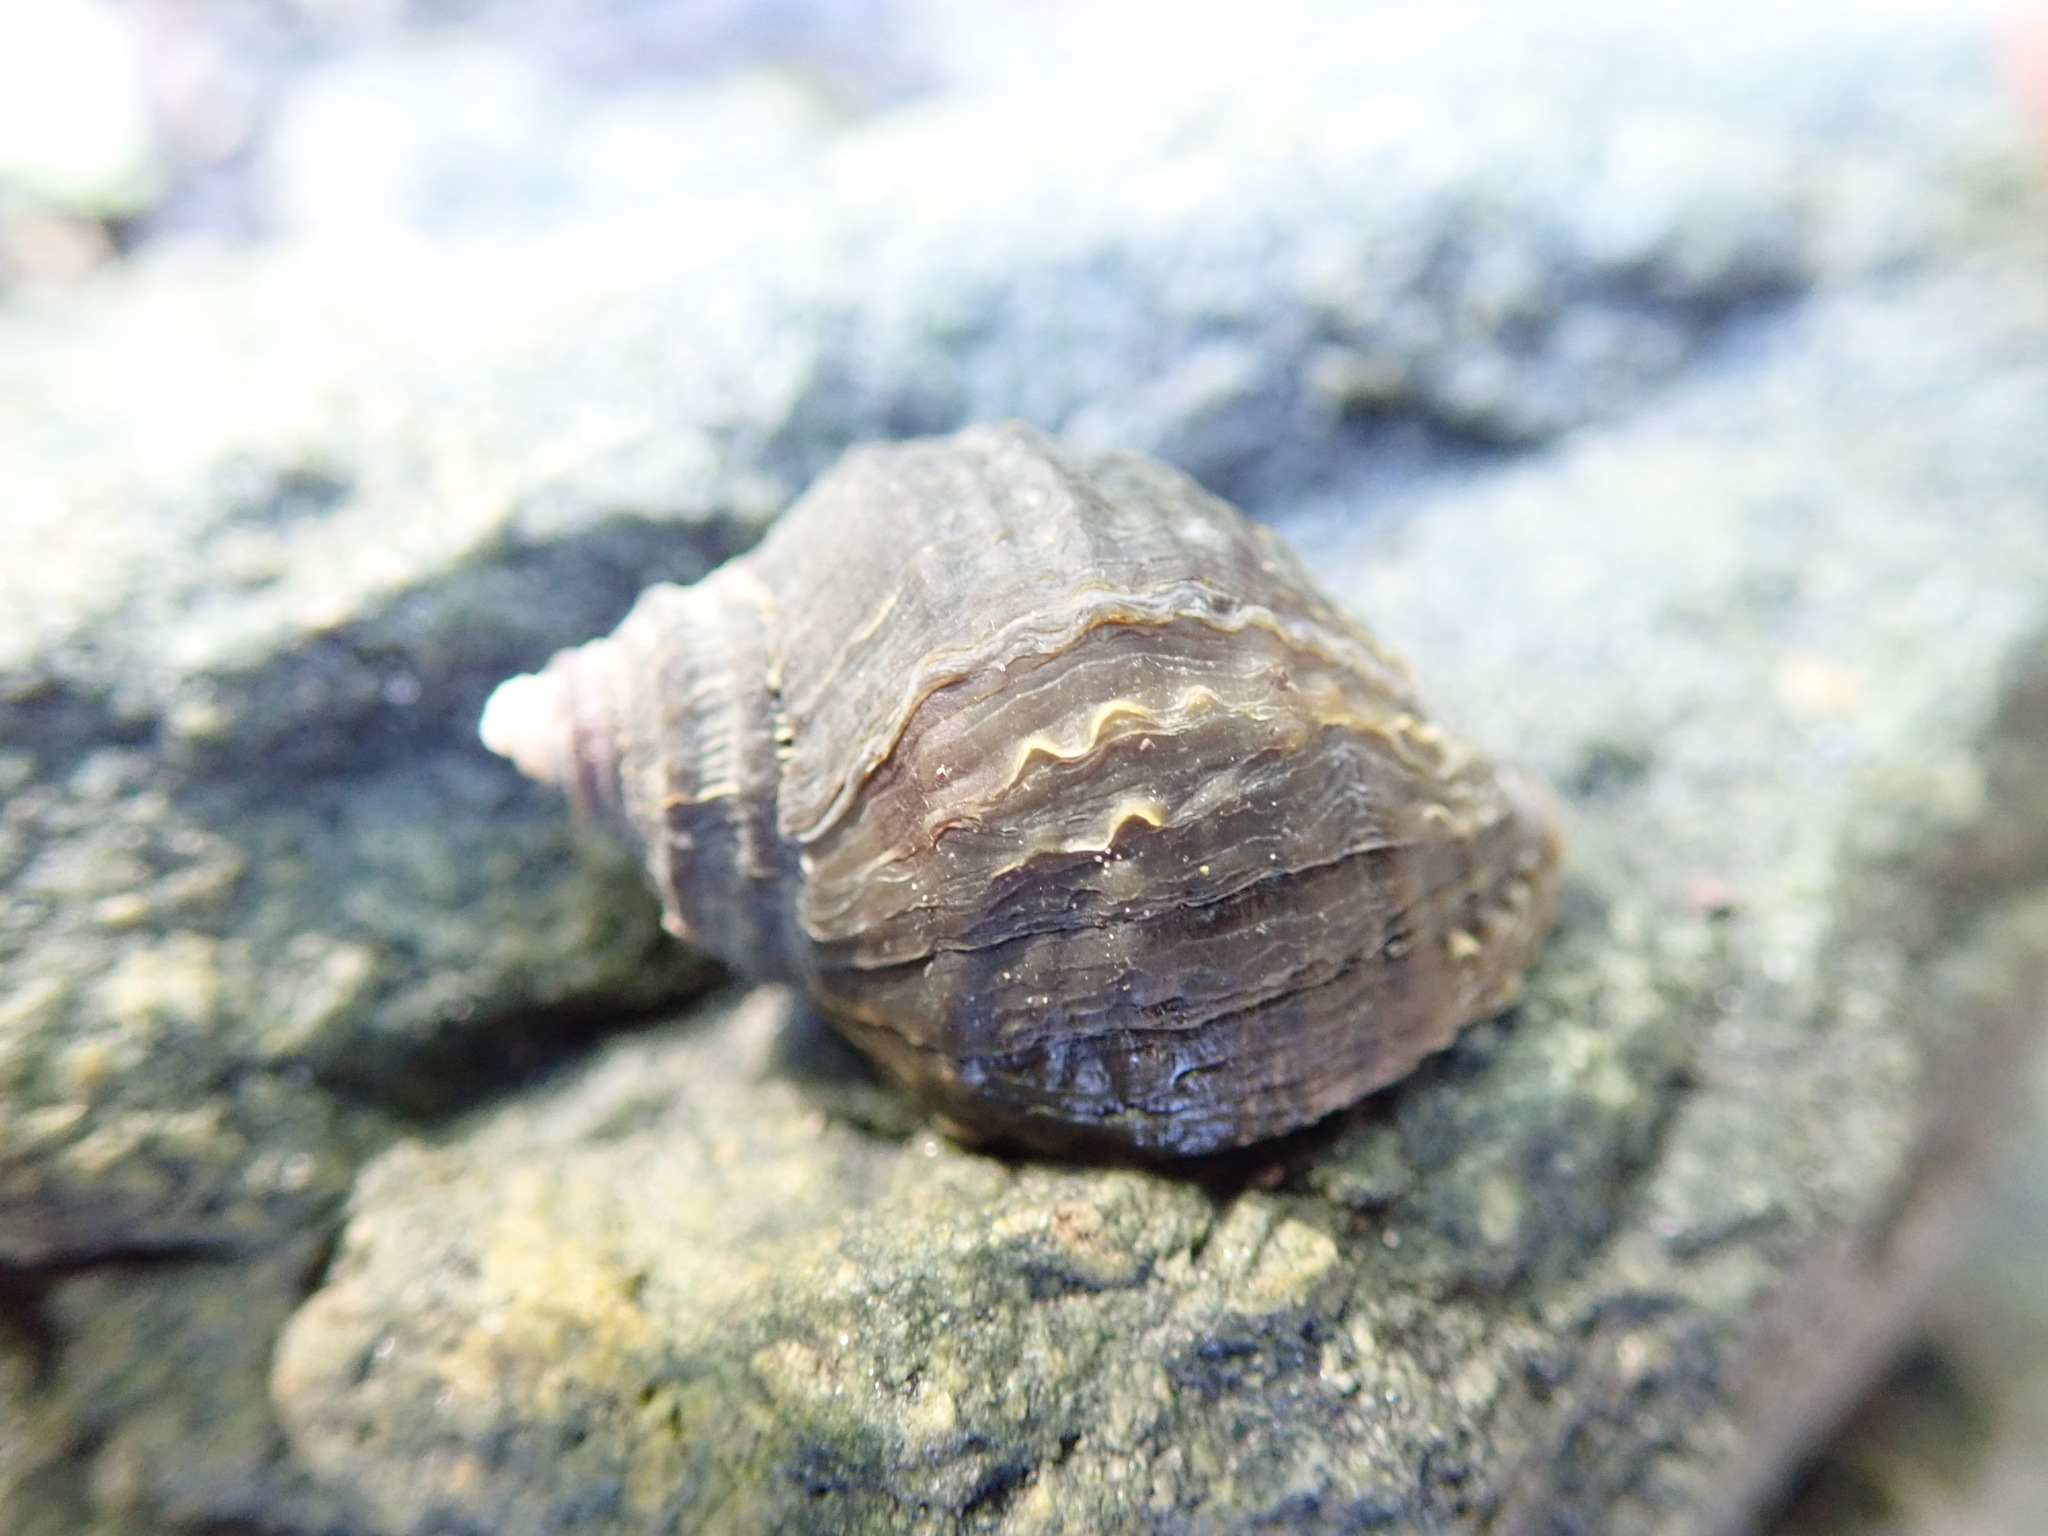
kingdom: Animalia
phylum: Mollusca
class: Gastropoda
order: Neogastropoda
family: Muricidae
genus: Nucella
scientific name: Nucella ostrina
